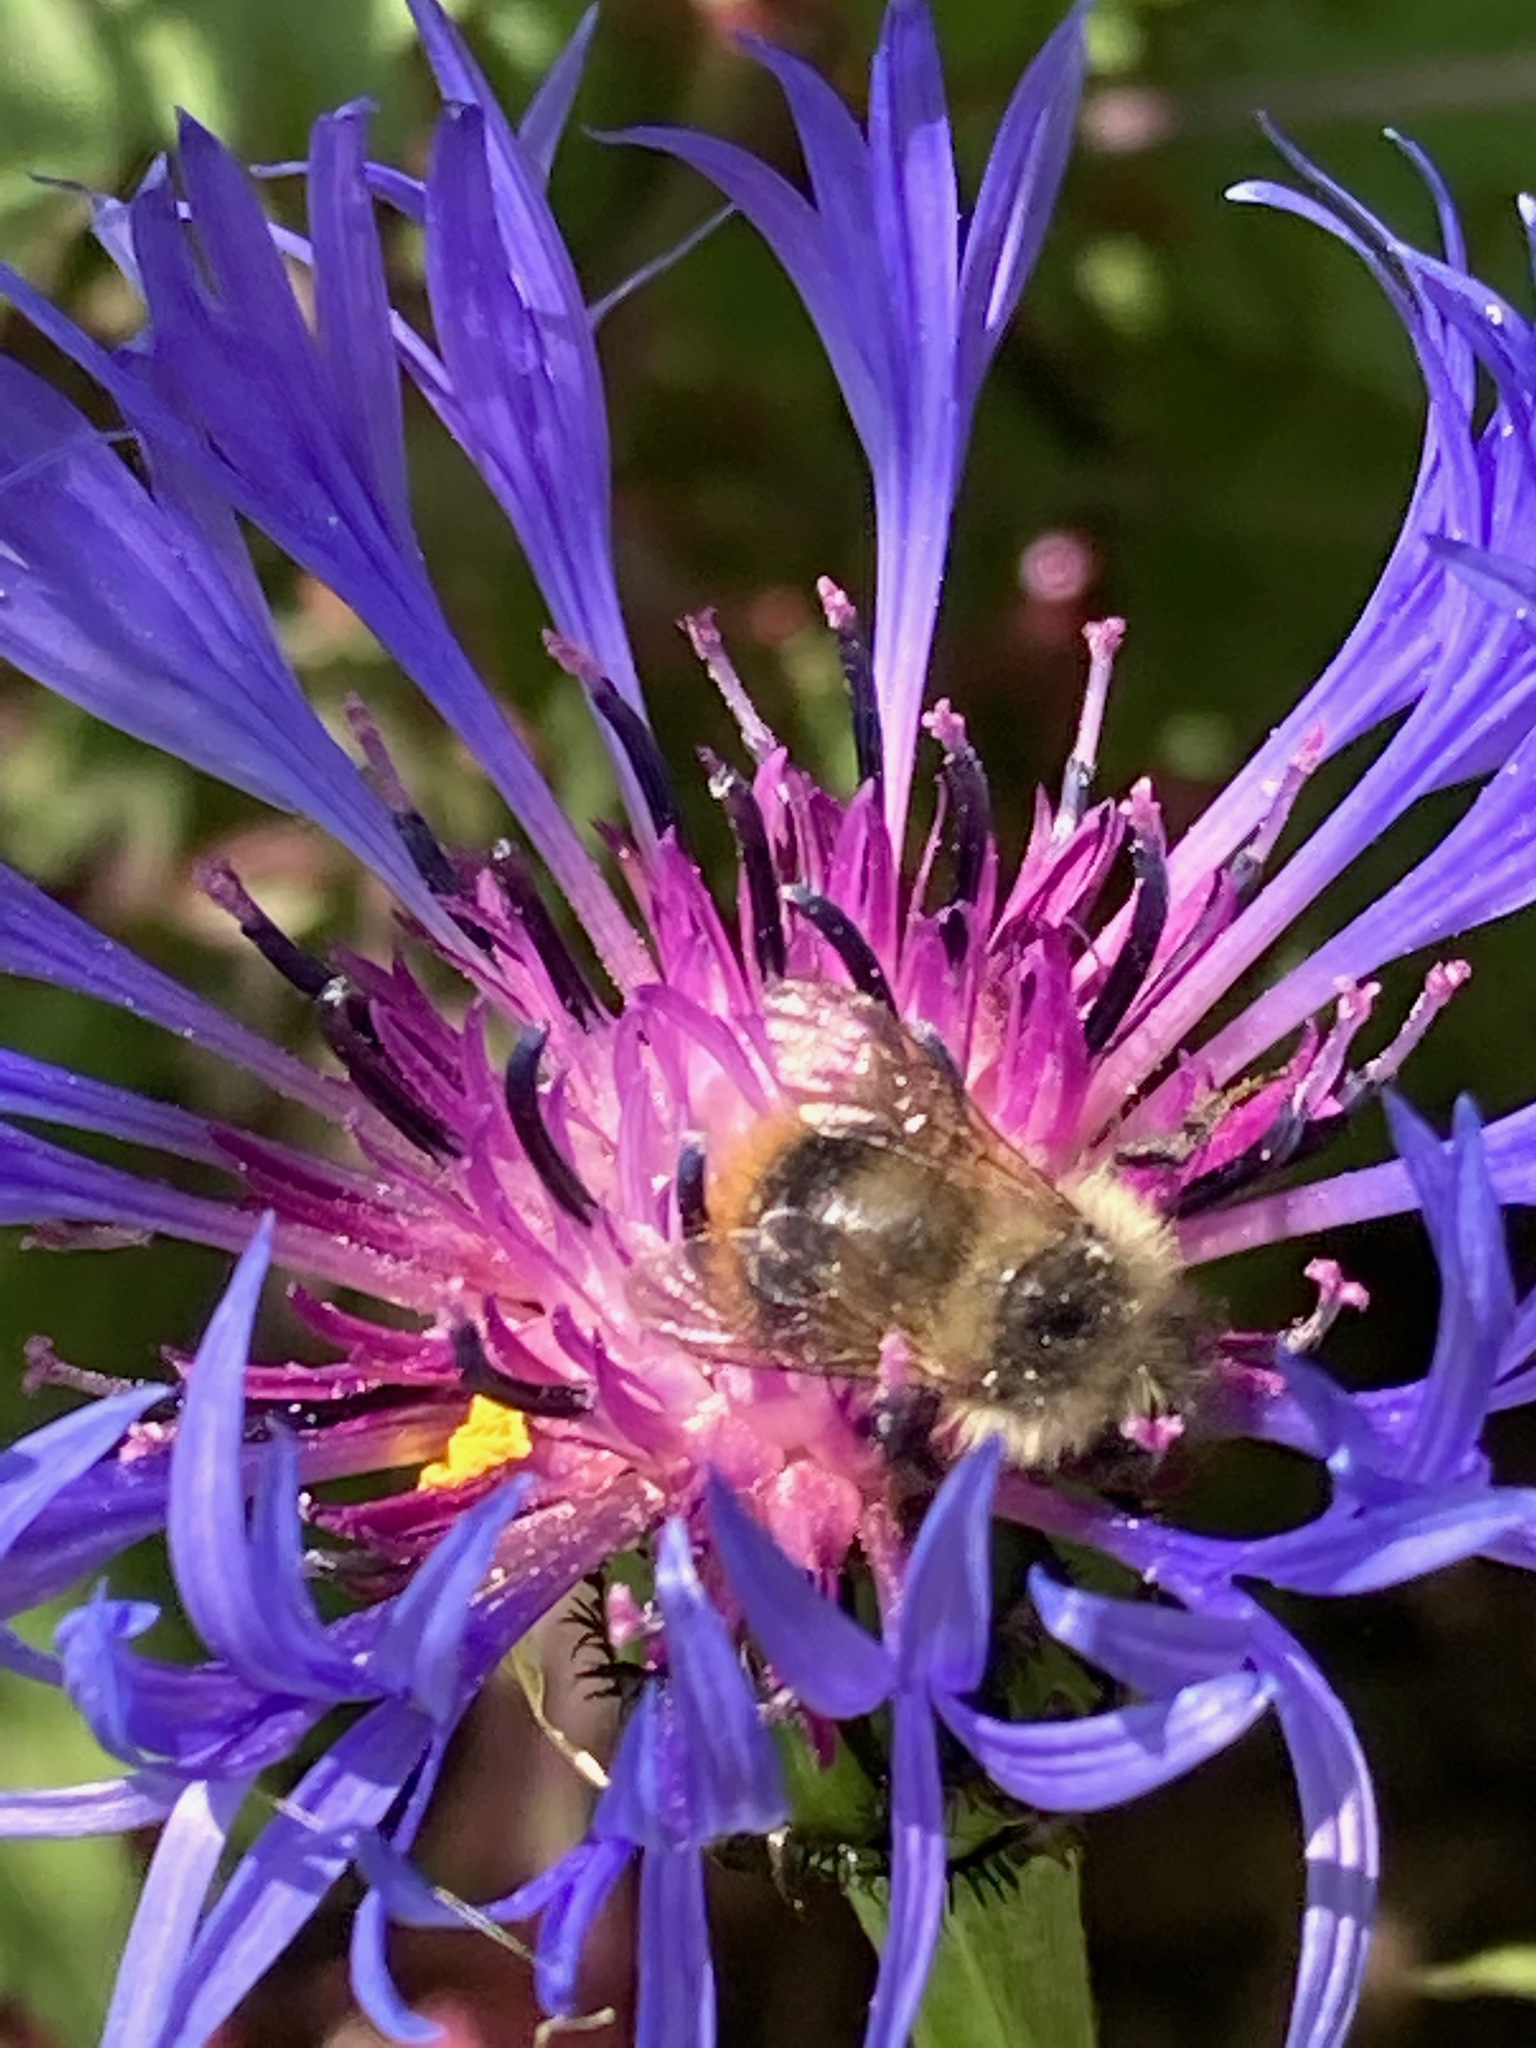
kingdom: Animalia
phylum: Arthropoda
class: Insecta
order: Hymenoptera
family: Apidae
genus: Bombus
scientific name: Bombus mixtus
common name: Fuzzy-horned bumble bee
